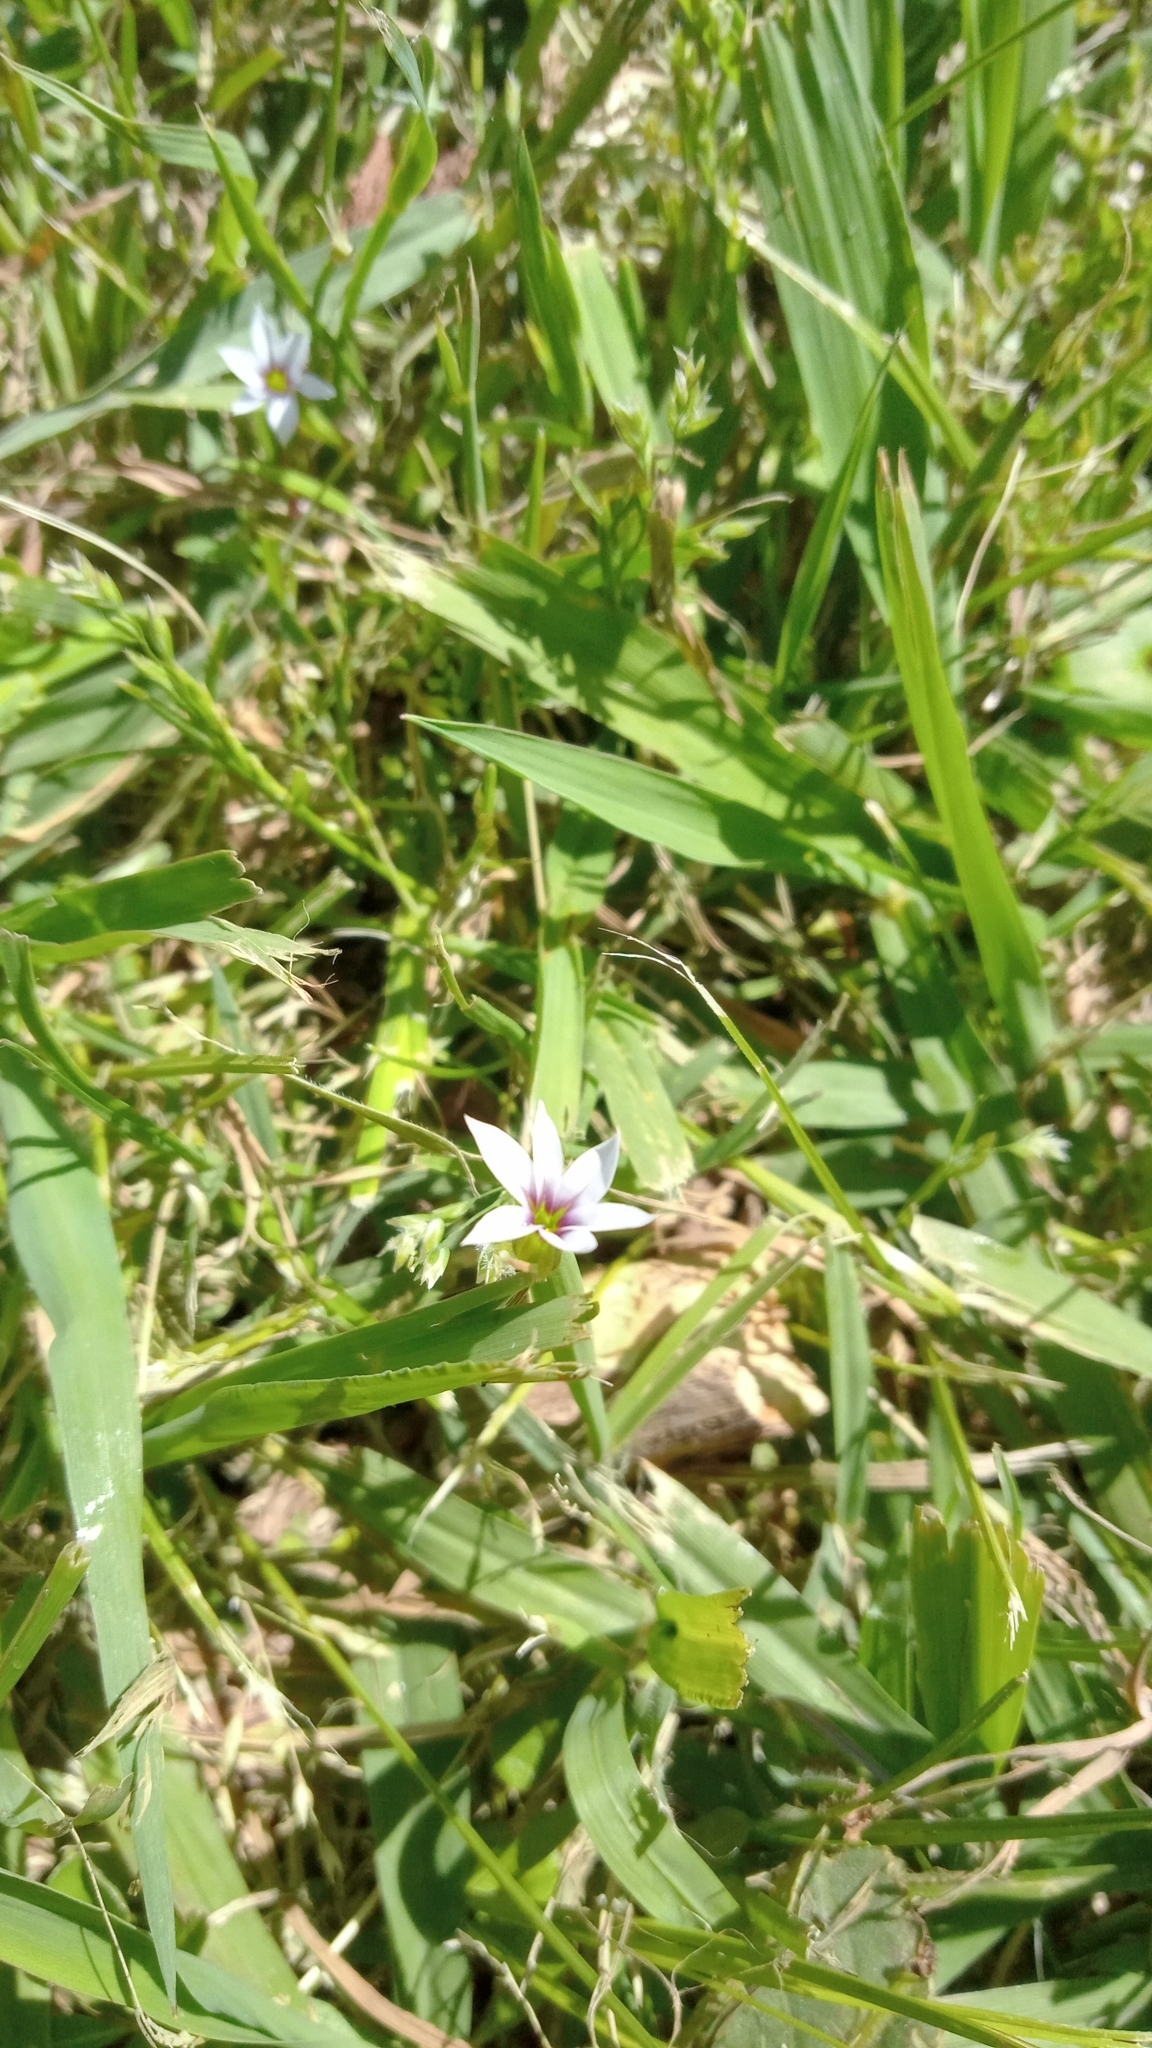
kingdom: Plantae
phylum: Tracheophyta
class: Liliopsida
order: Asparagales
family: Iridaceae
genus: Sisyrinchium
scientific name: Sisyrinchium micranthum
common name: Bermuda pigroot
